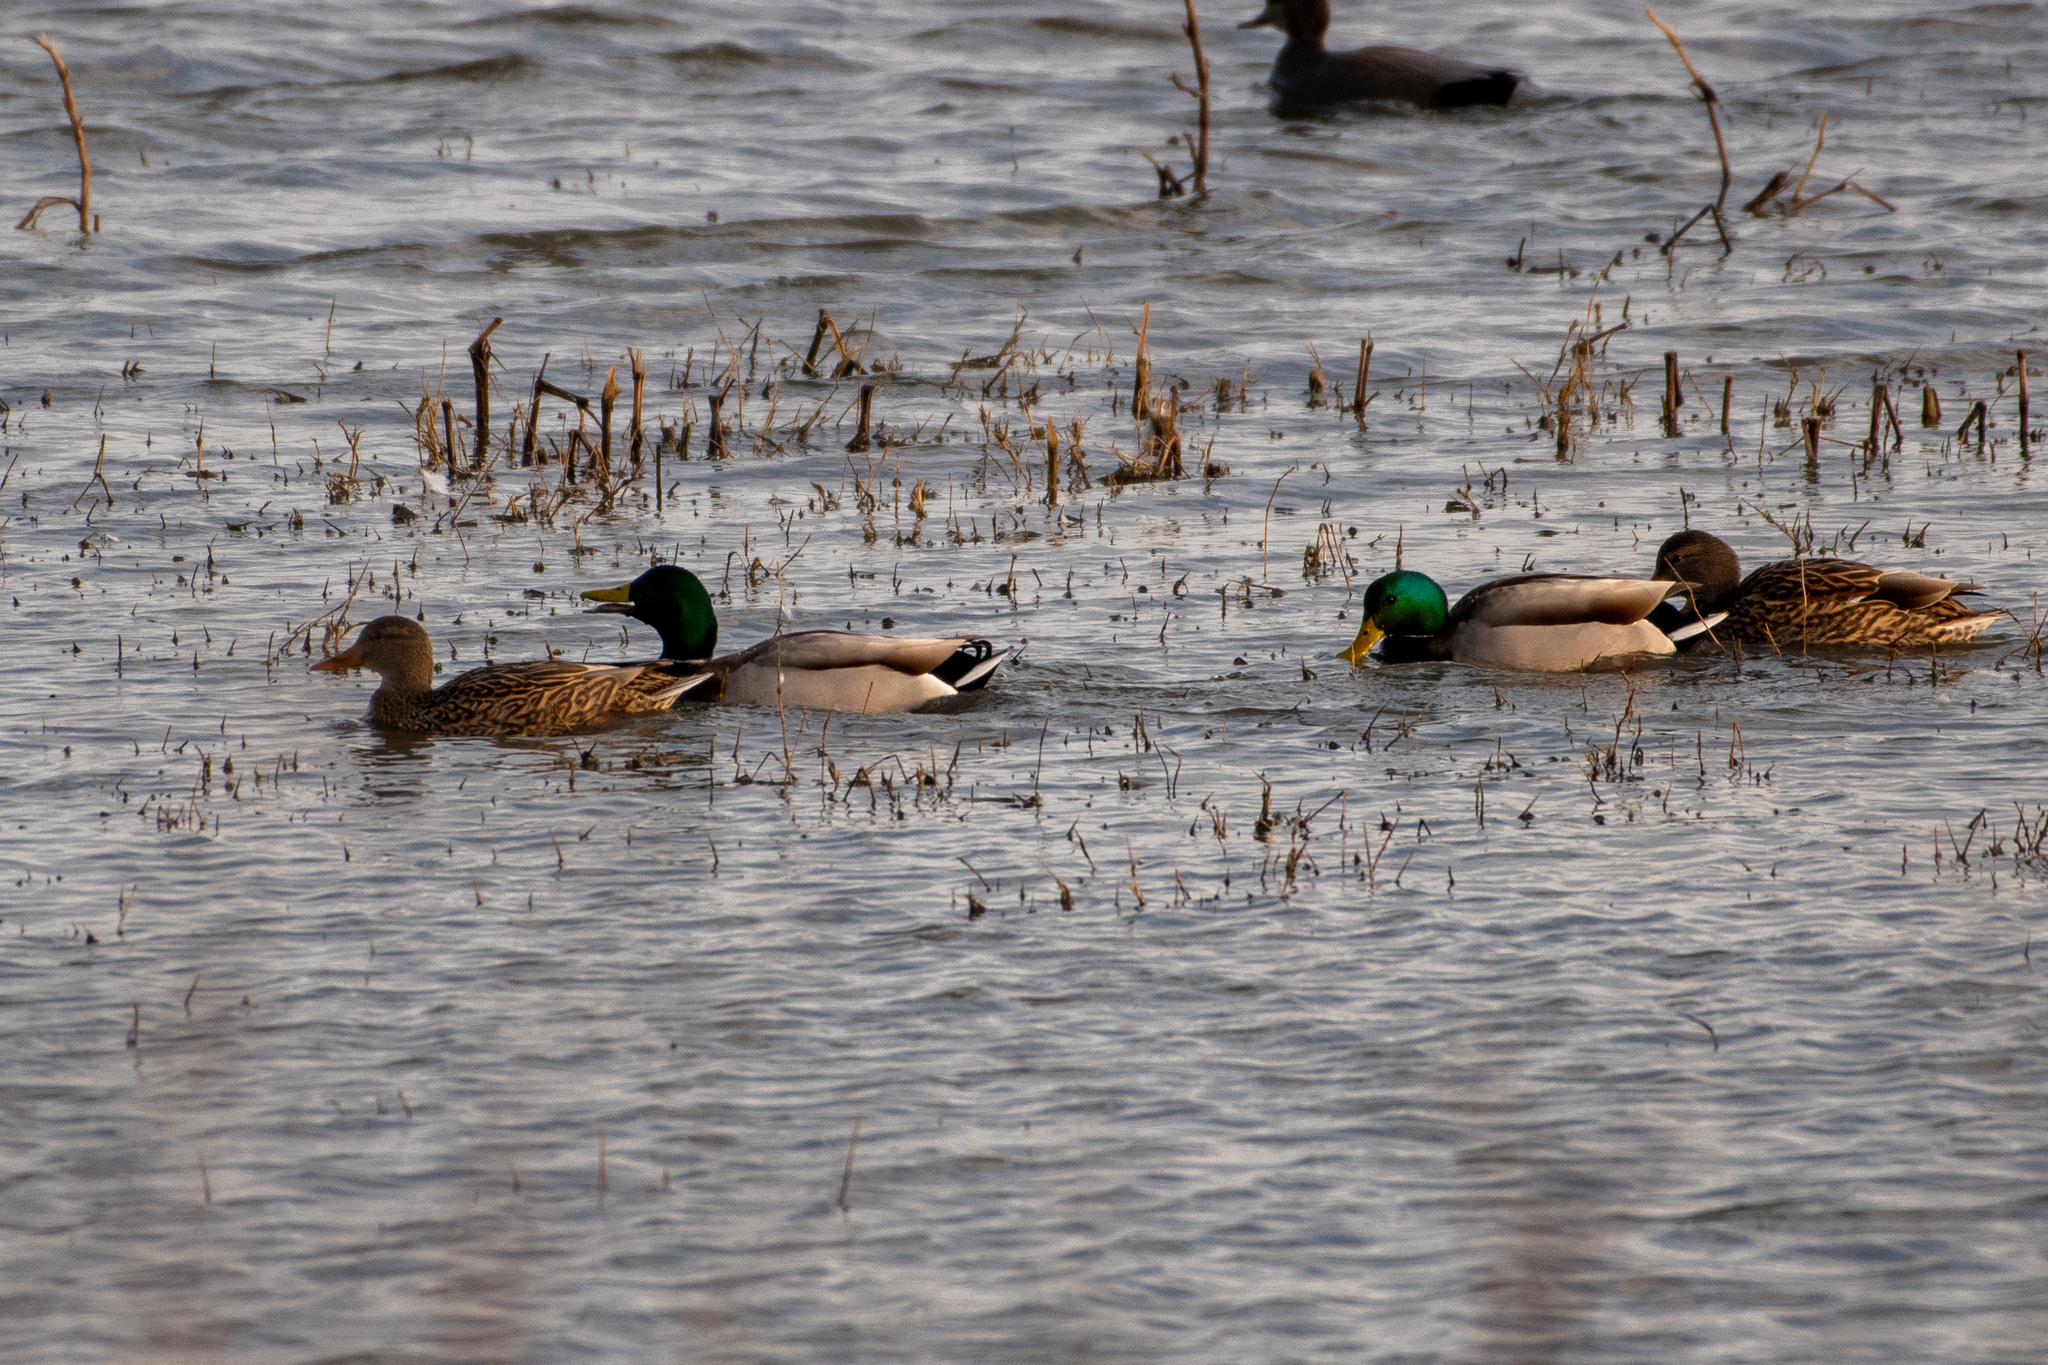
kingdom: Animalia
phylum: Chordata
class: Aves
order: Anseriformes
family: Anatidae
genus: Anas
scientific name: Anas platyrhynchos
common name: Mallard
